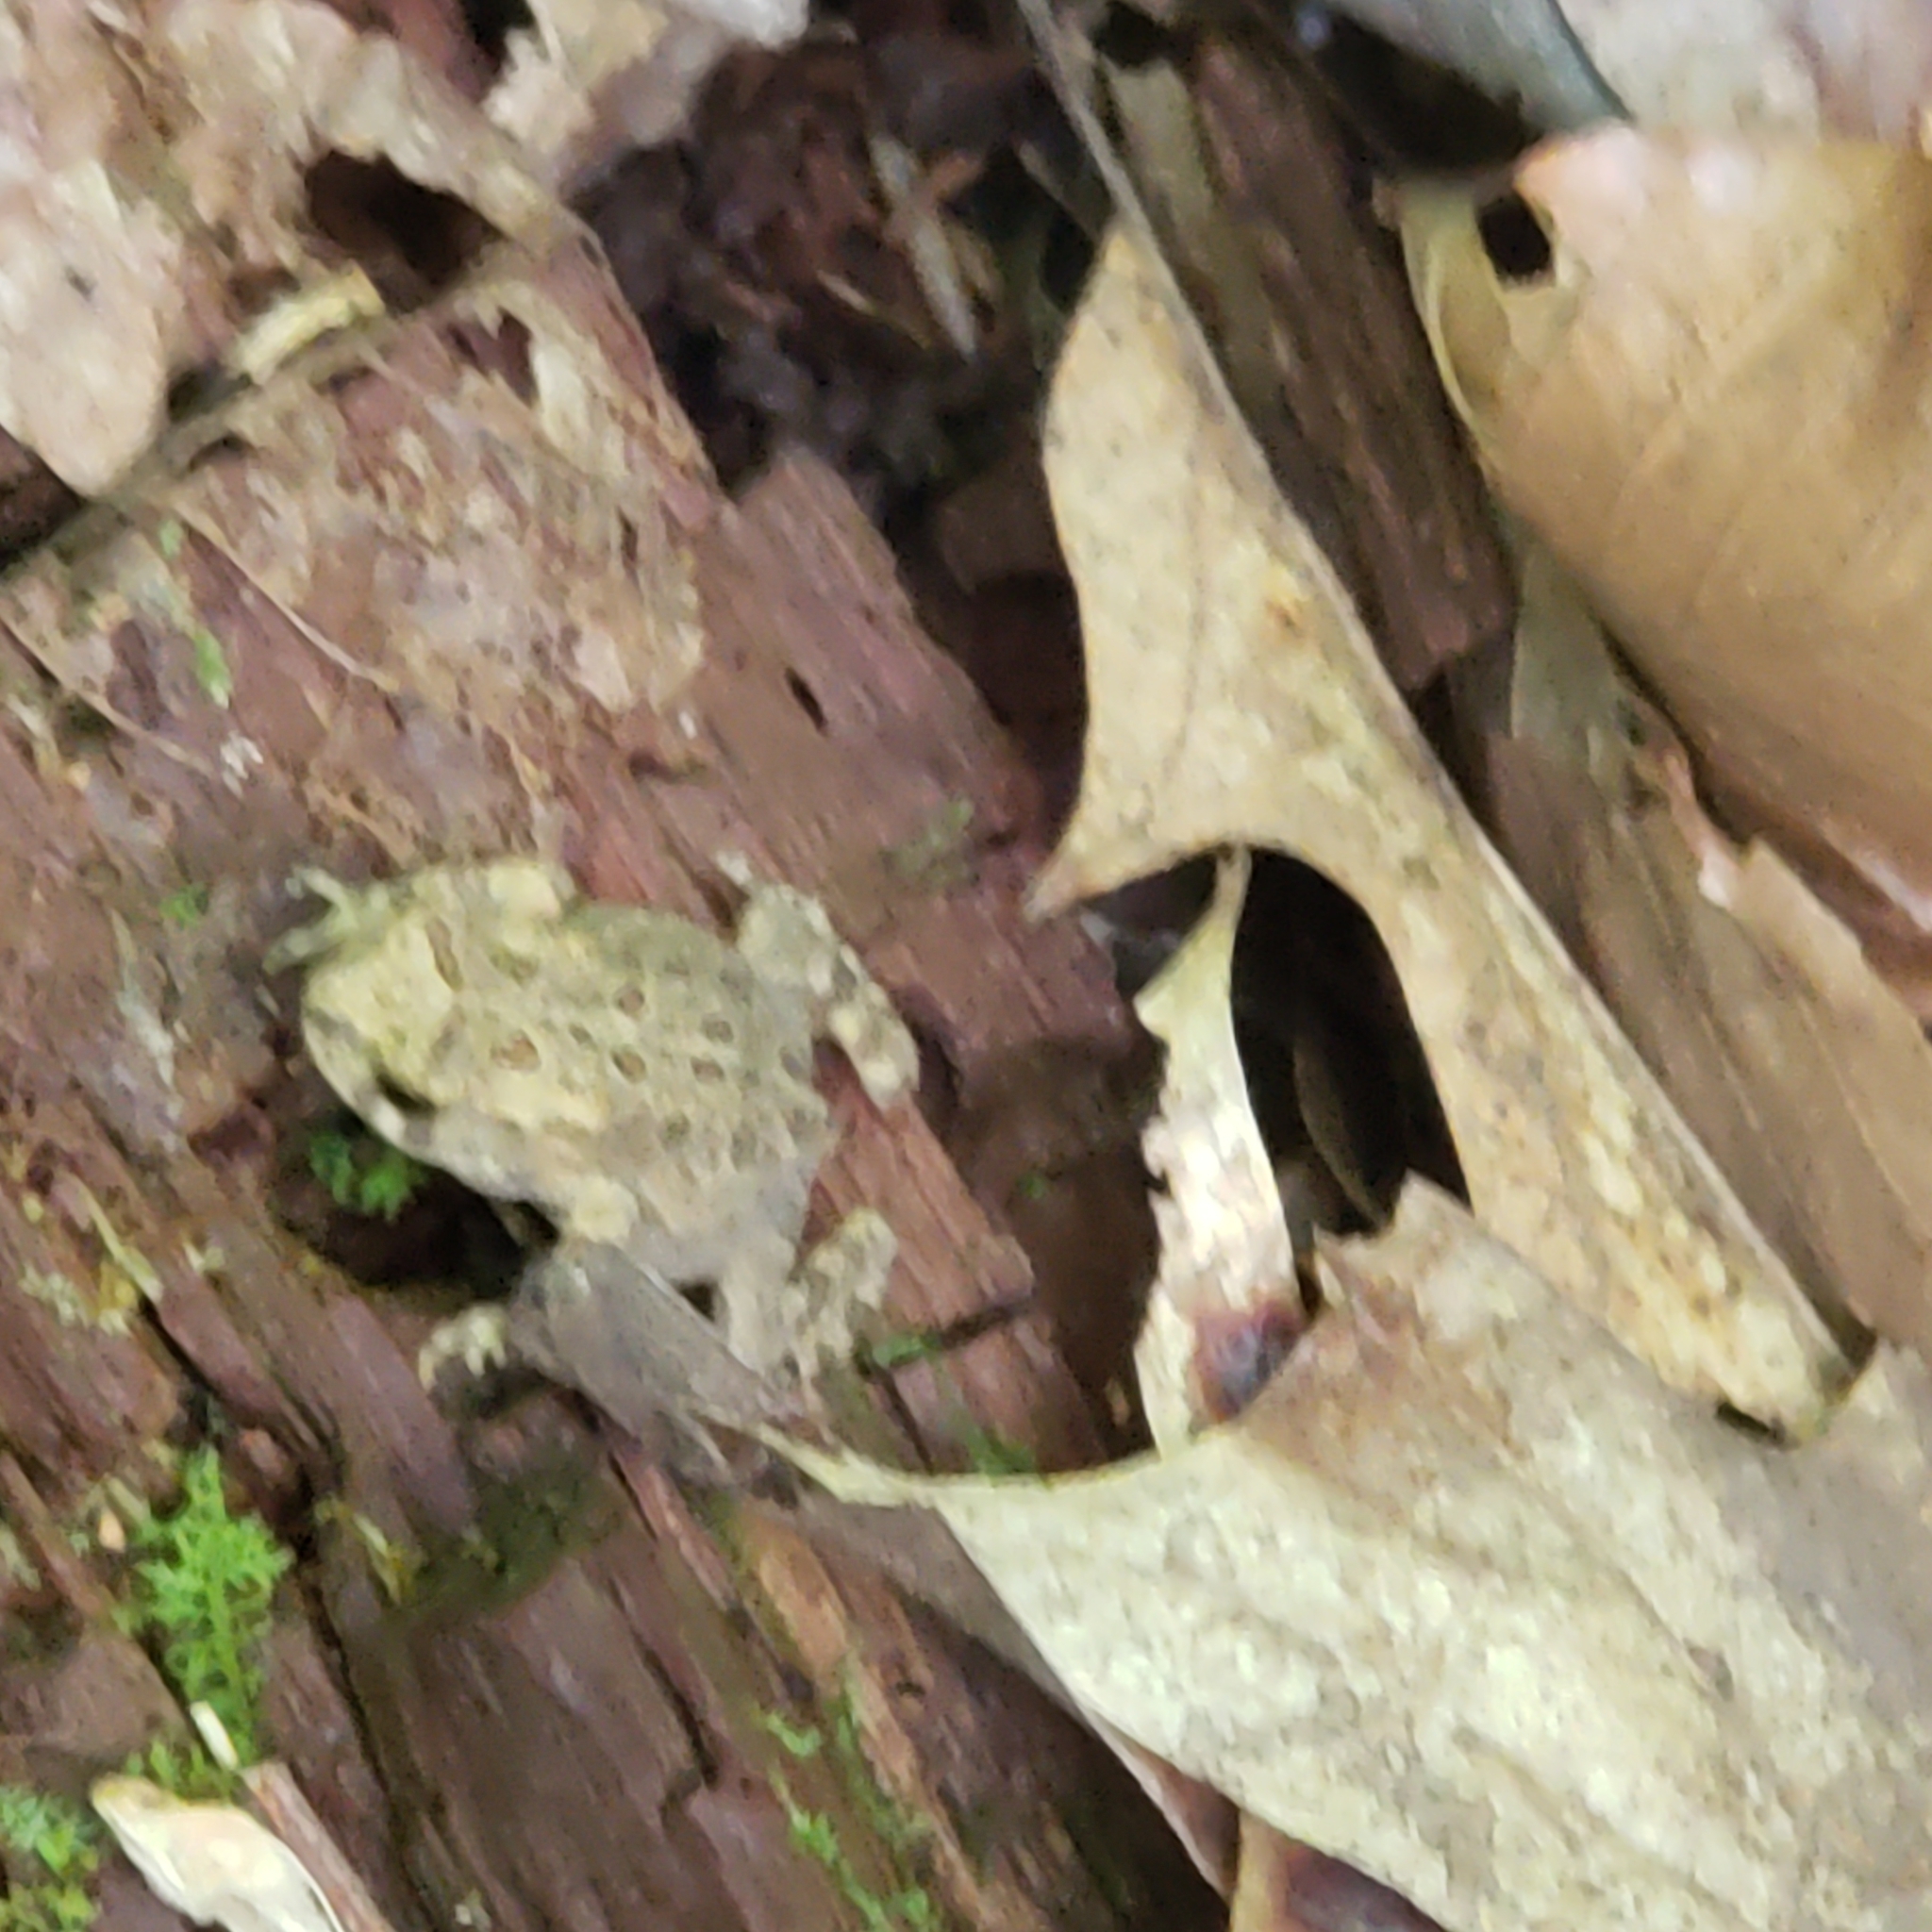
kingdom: Animalia
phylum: Chordata
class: Amphibia
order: Anura
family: Bufonidae
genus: Anaxyrus
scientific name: Anaxyrus americanus
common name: American toad
